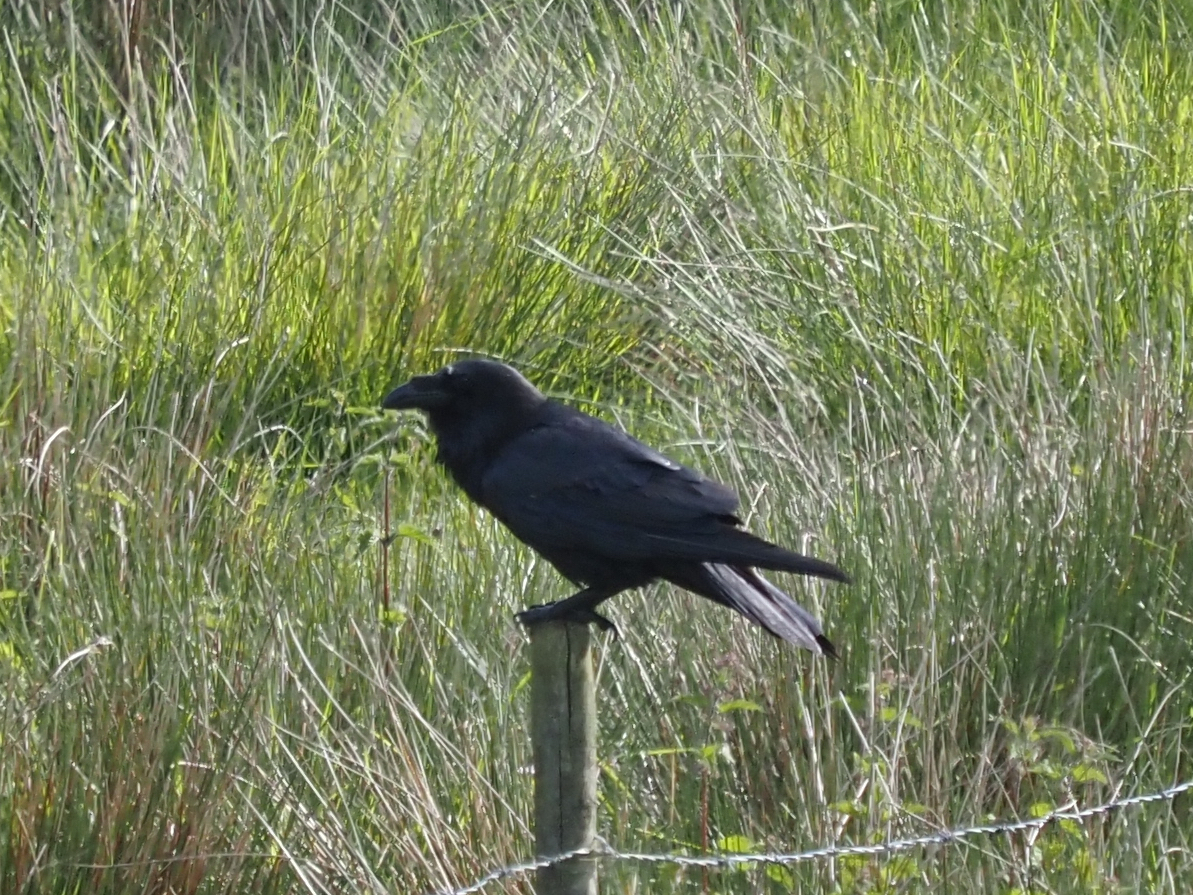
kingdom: Animalia
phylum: Chordata
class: Aves
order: Passeriformes
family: Corvidae
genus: Corvus
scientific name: Corvus corax
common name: Common raven
